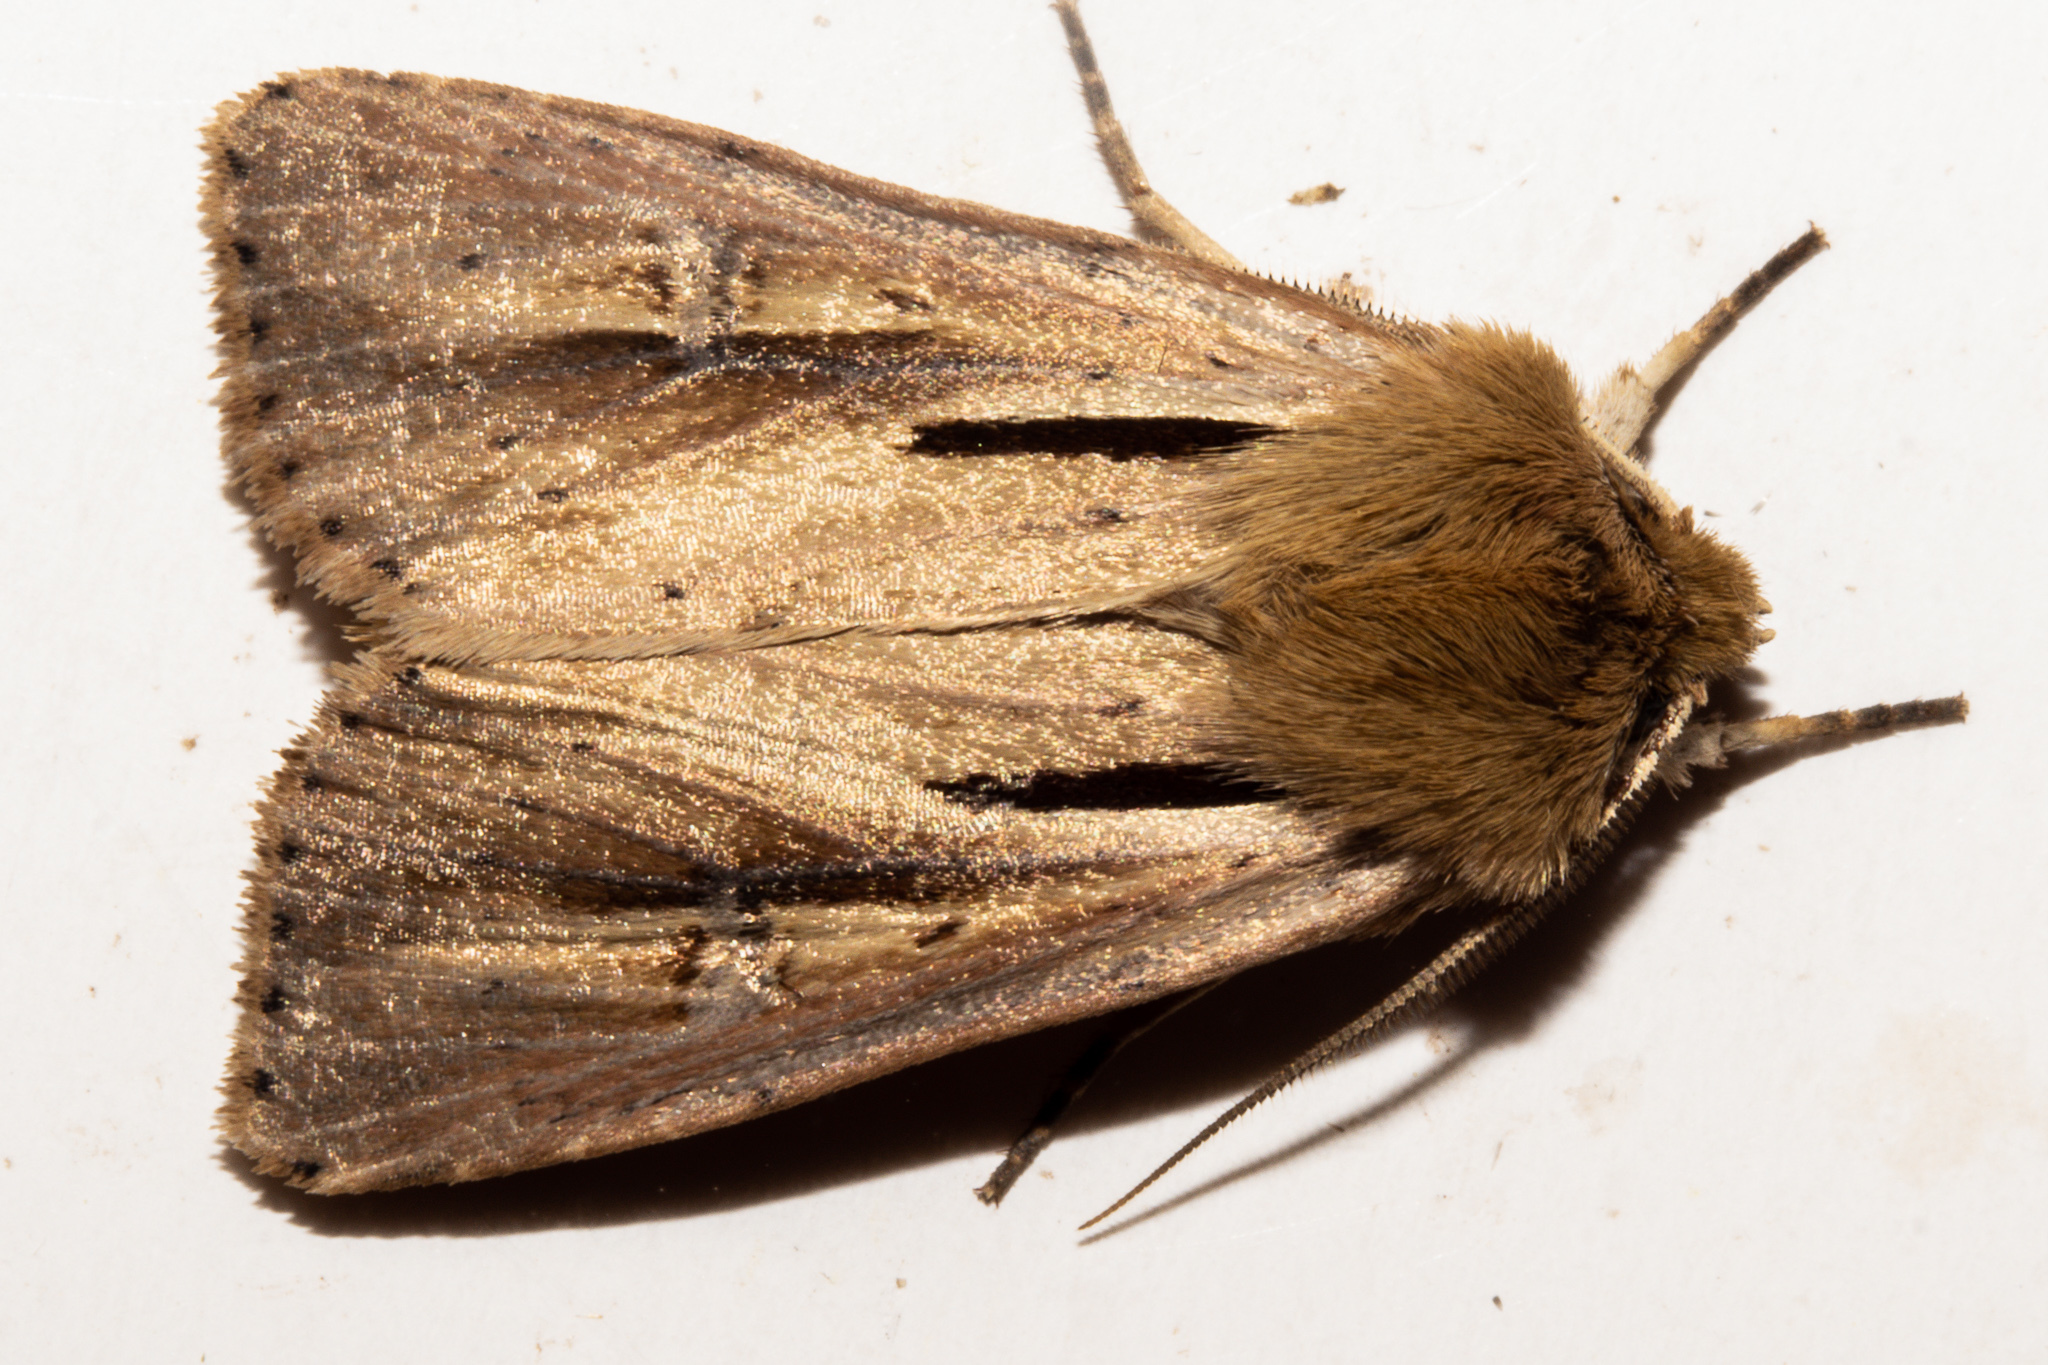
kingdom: Animalia
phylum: Arthropoda
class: Insecta
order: Lepidoptera
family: Noctuidae
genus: Ichneutica
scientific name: Ichneutica propria
